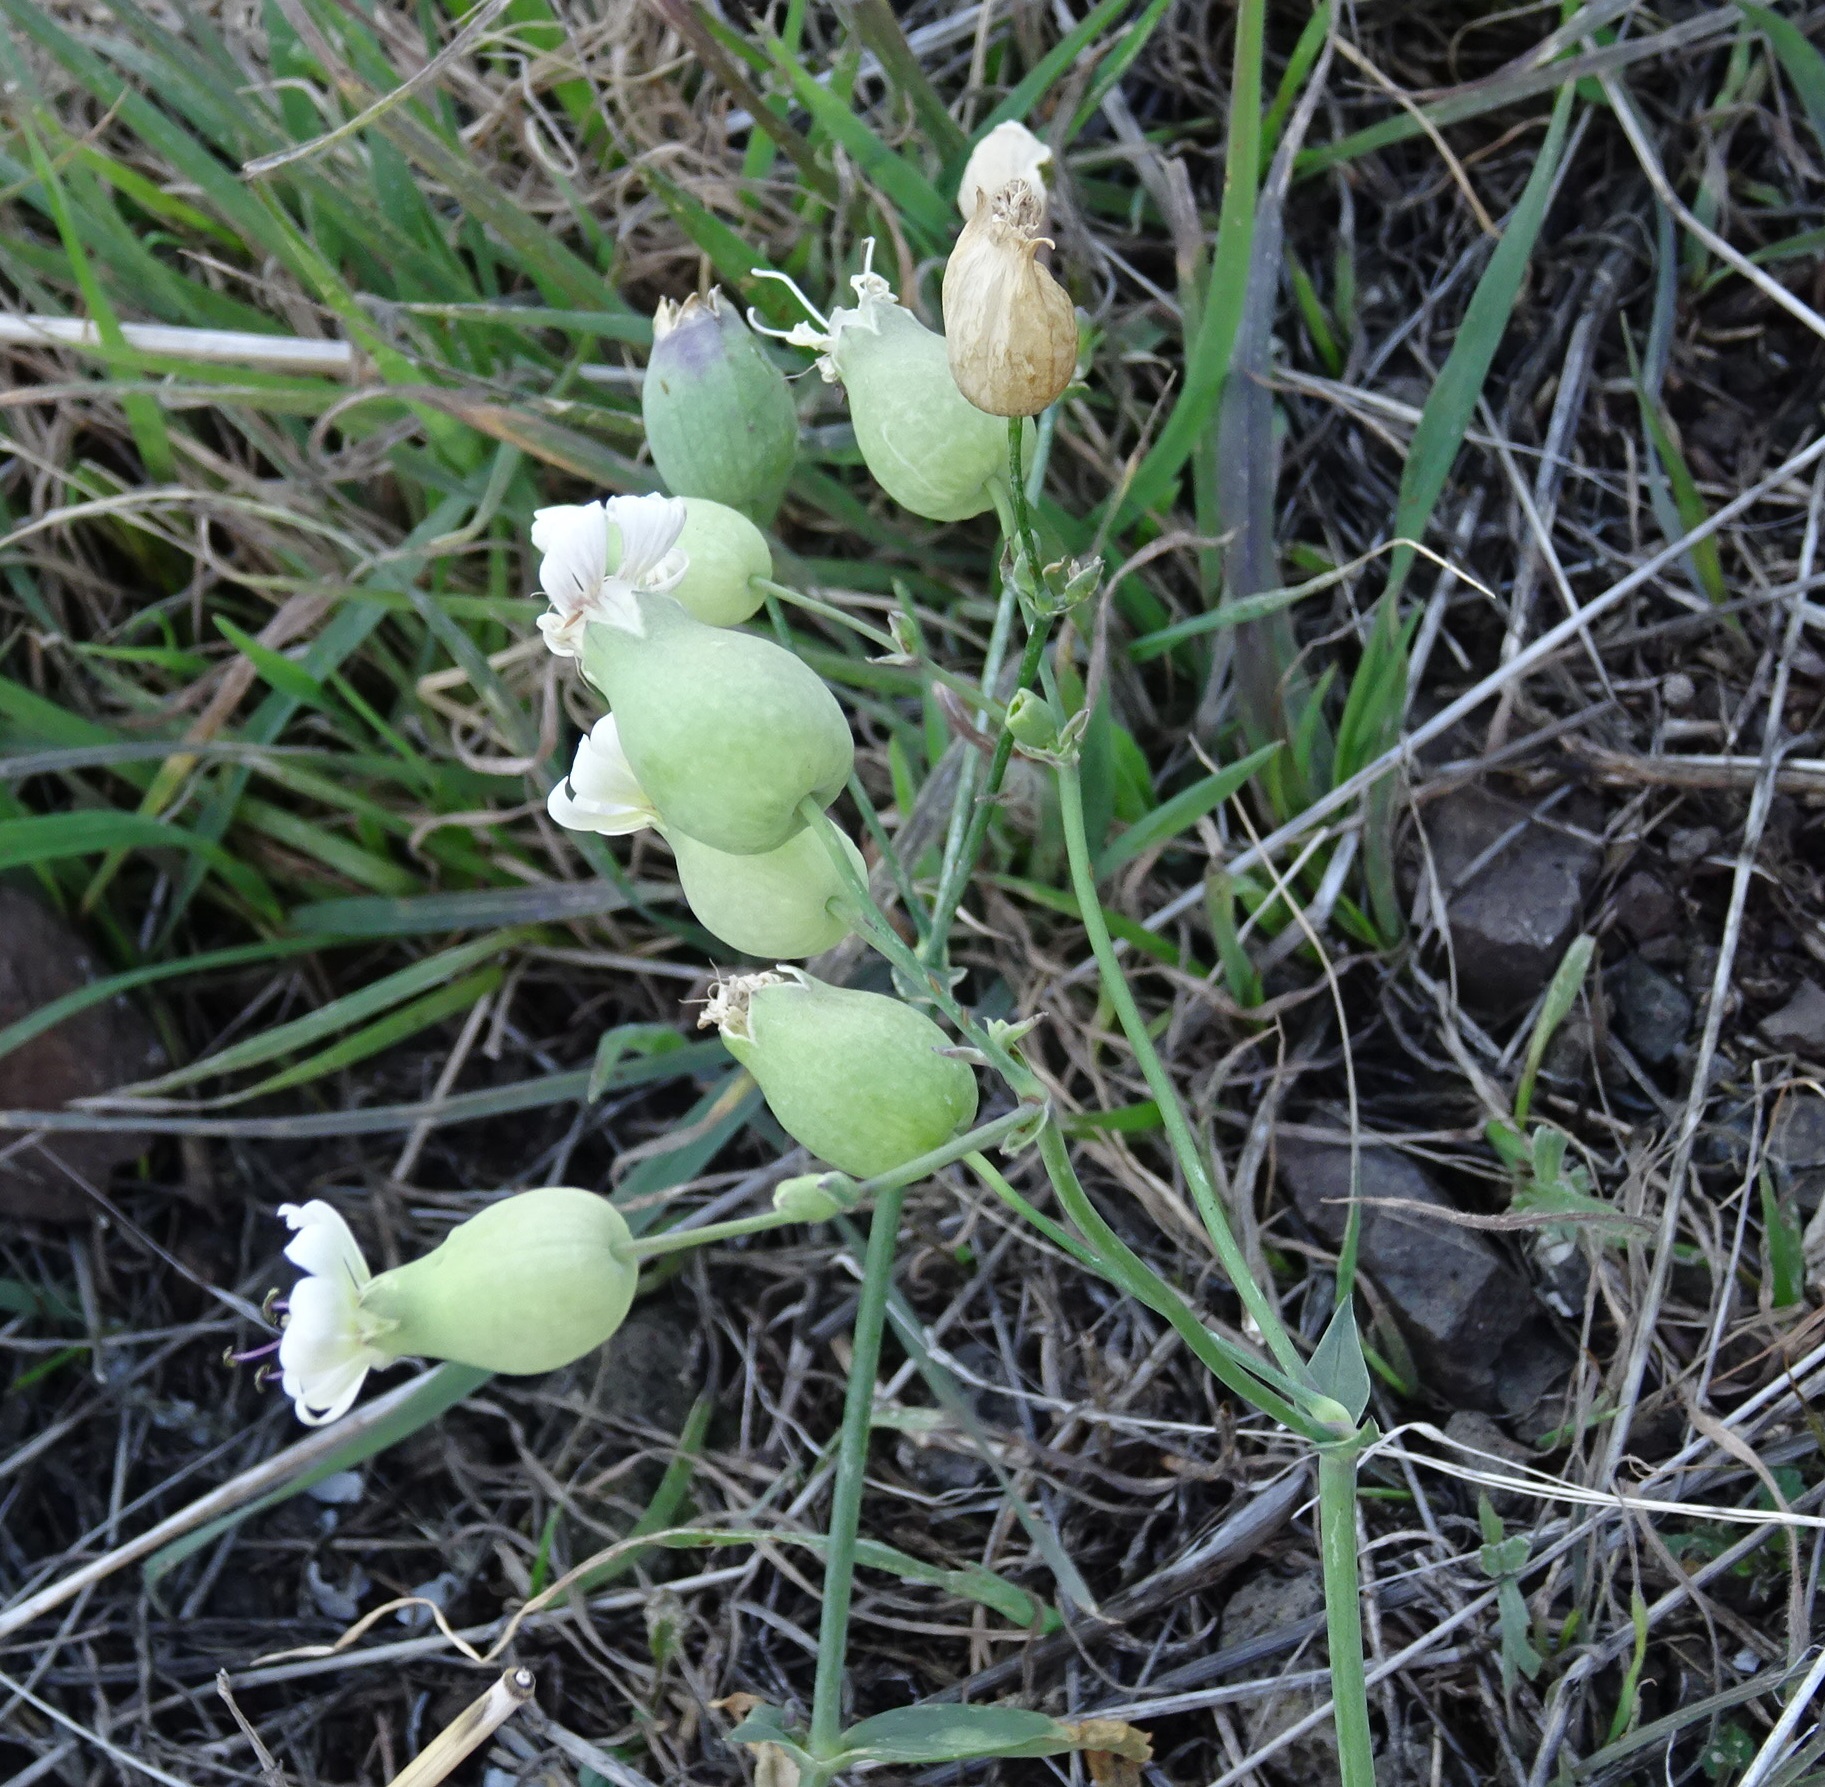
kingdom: Plantae
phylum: Tracheophyta
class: Magnoliopsida
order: Caryophyllales
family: Caryophyllaceae
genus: Silene
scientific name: Silene vulgaris
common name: Bladder campion
